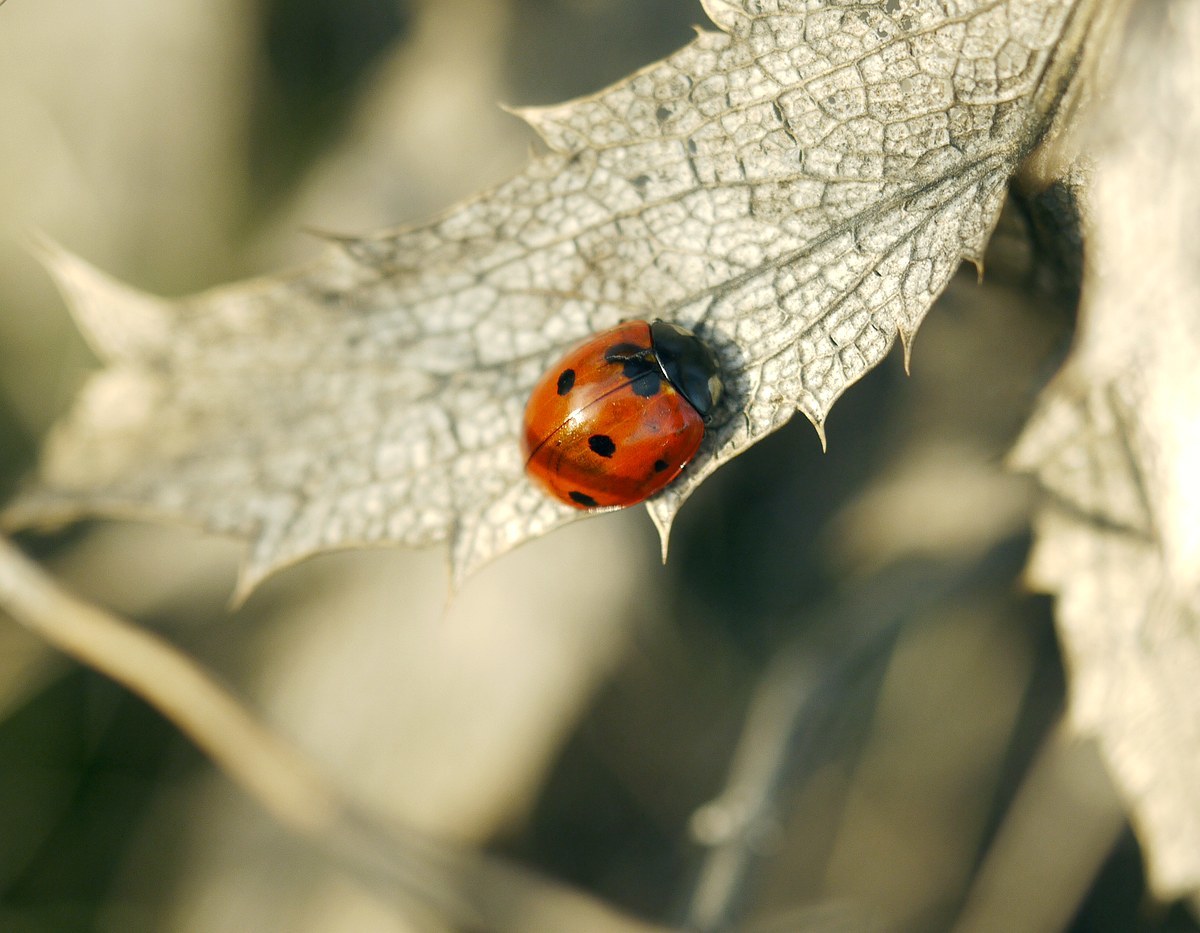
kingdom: Animalia
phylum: Arthropoda
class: Insecta
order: Coleoptera
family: Coccinellidae
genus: Coccinella
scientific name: Coccinella septempunctata
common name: Sevenspotted lady beetle
